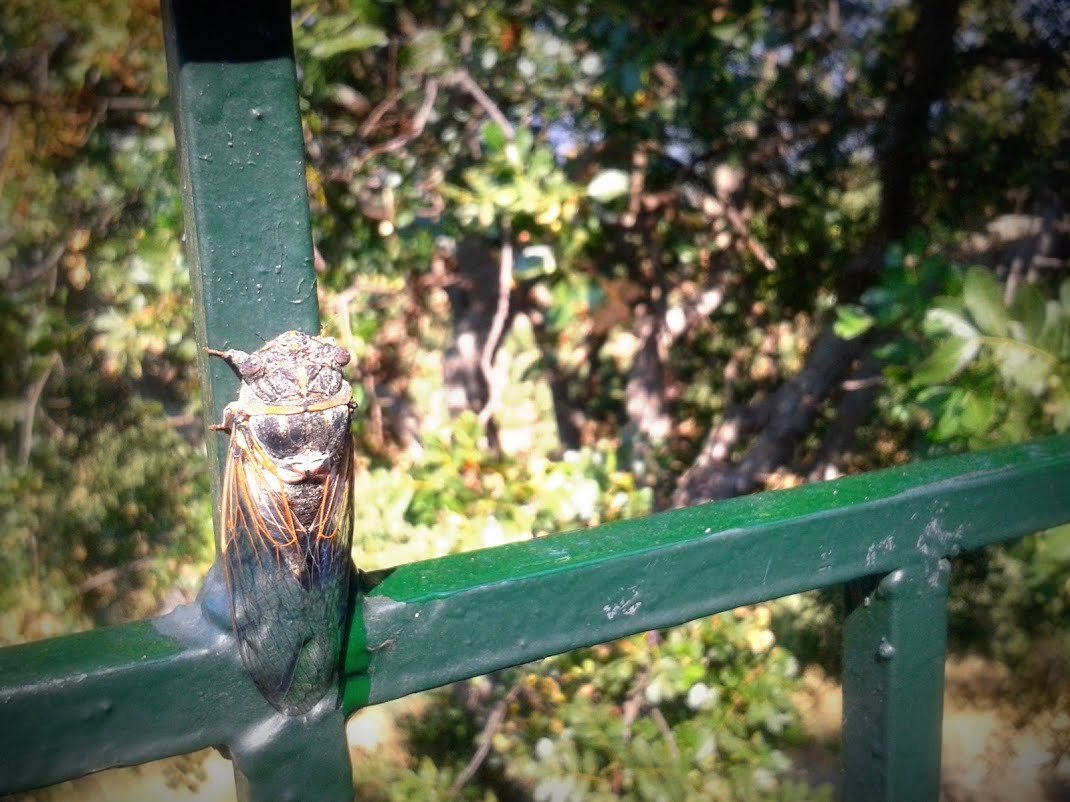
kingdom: Animalia
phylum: Arthropoda
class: Insecta
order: Hemiptera
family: Cicadidae
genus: Lyristes
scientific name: Lyristes plebejus
